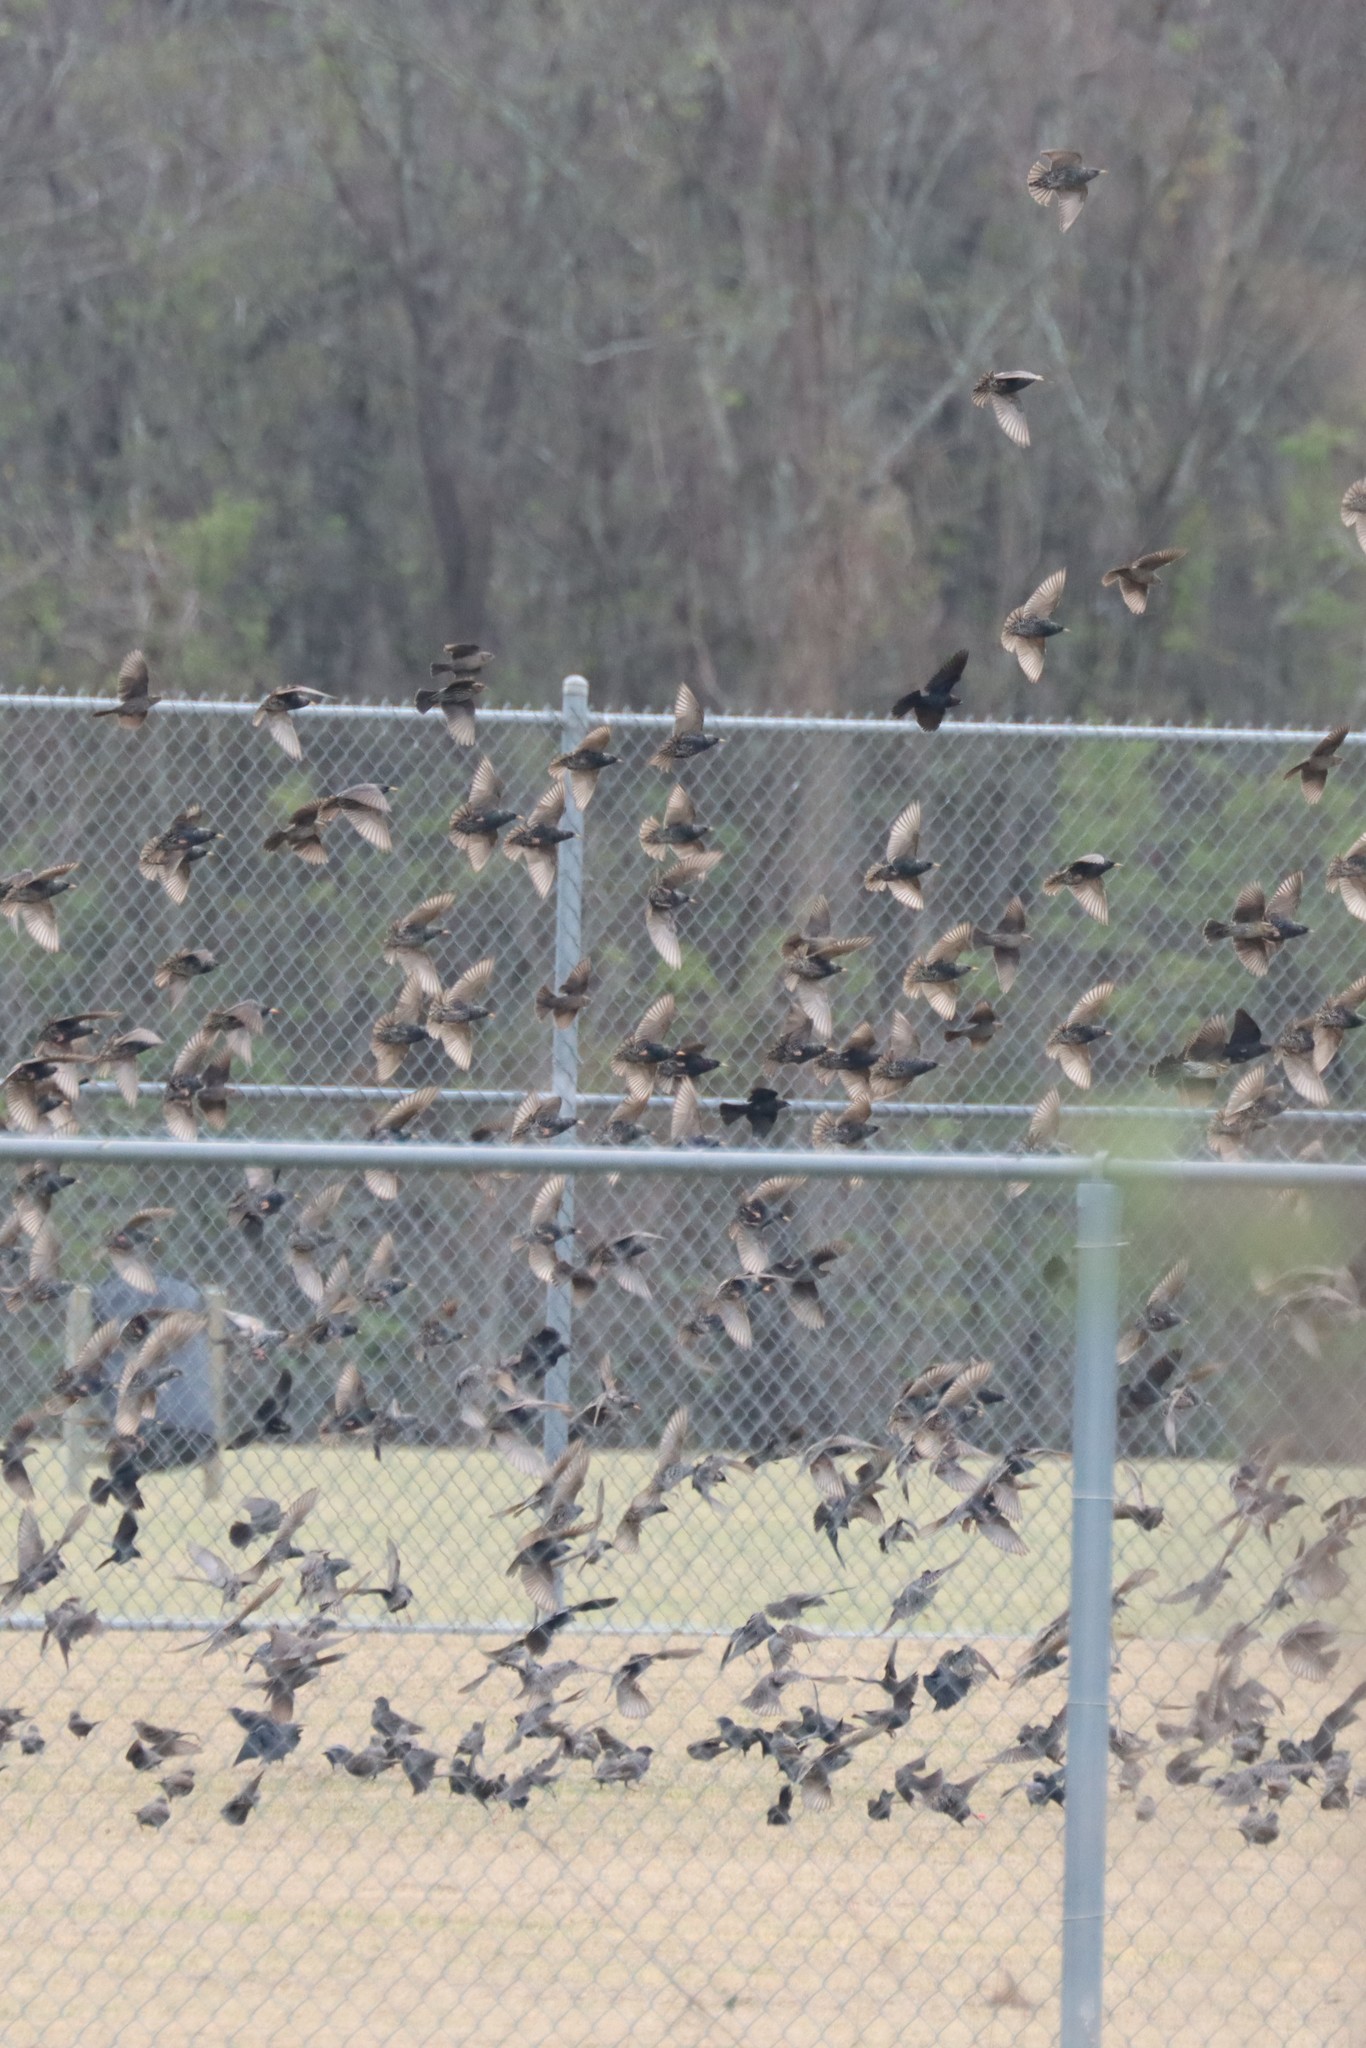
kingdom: Animalia
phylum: Chordata
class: Aves
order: Passeriformes
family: Sturnidae
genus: Sturnus
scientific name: Sturnus vulgaris
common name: Common starling
